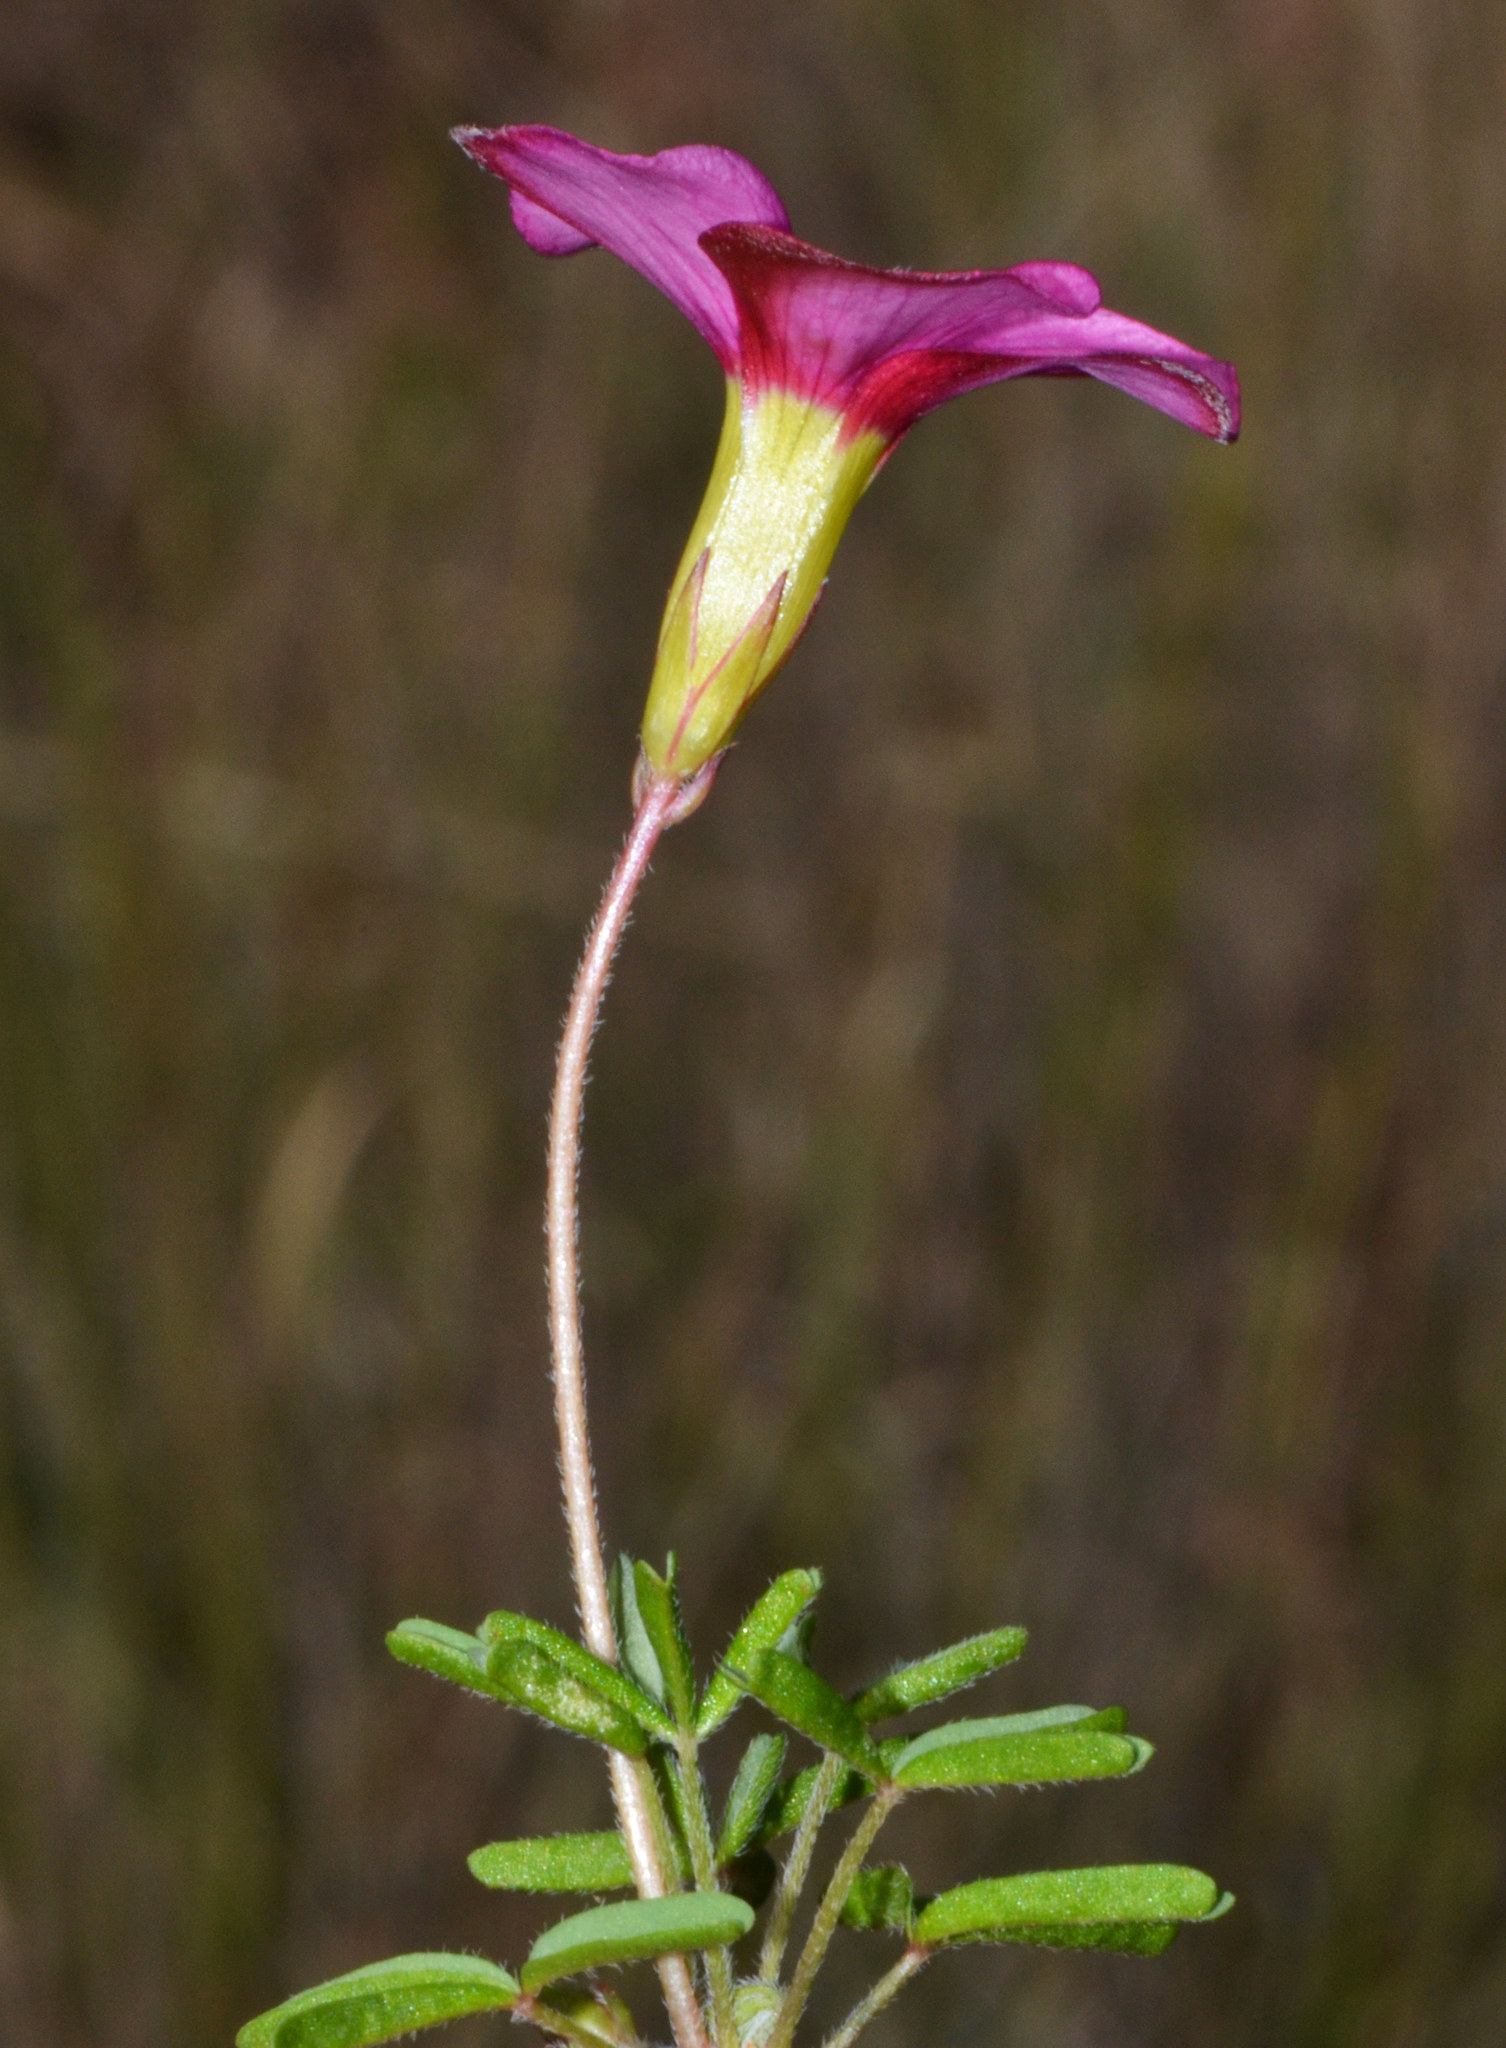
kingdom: Plantae
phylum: Tracheophyta
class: Magnoliopsida
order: Oxalidales
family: Oxalidaceae
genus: Oxalis
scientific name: Oxalis purpurea
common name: Purple woodsorrel
